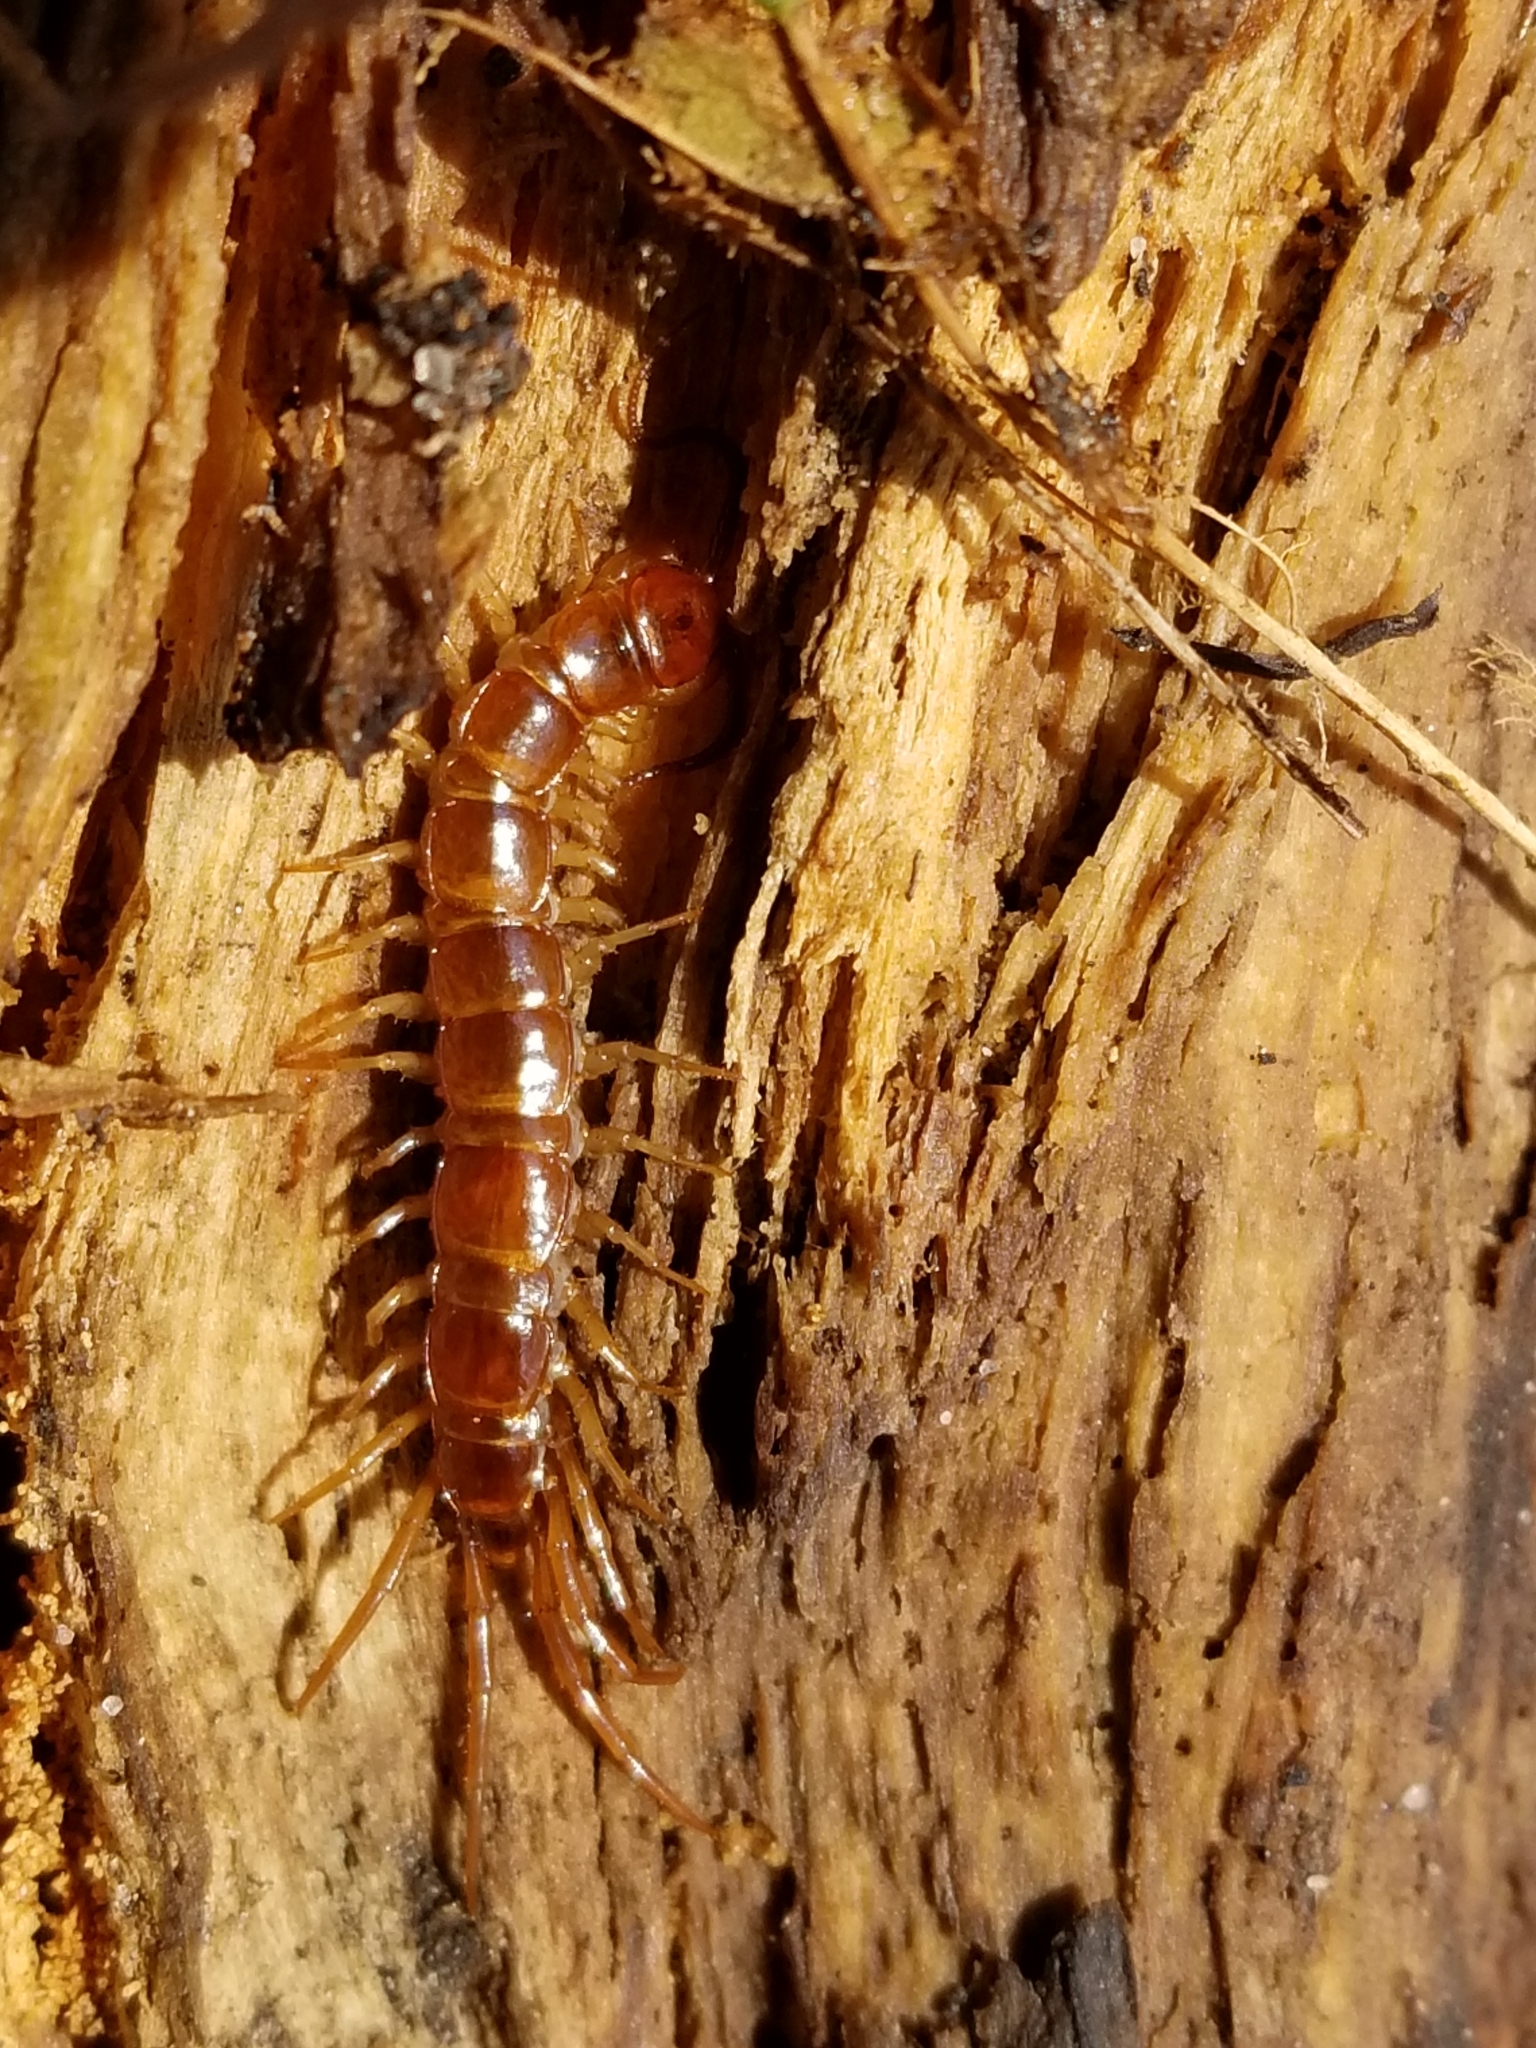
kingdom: Animalia
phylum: Arthropoda
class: Chilopoda
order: Lithobiomorpha
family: Lithobiidae
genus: Lithobius
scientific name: Lithobius forficatus
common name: Centipede
